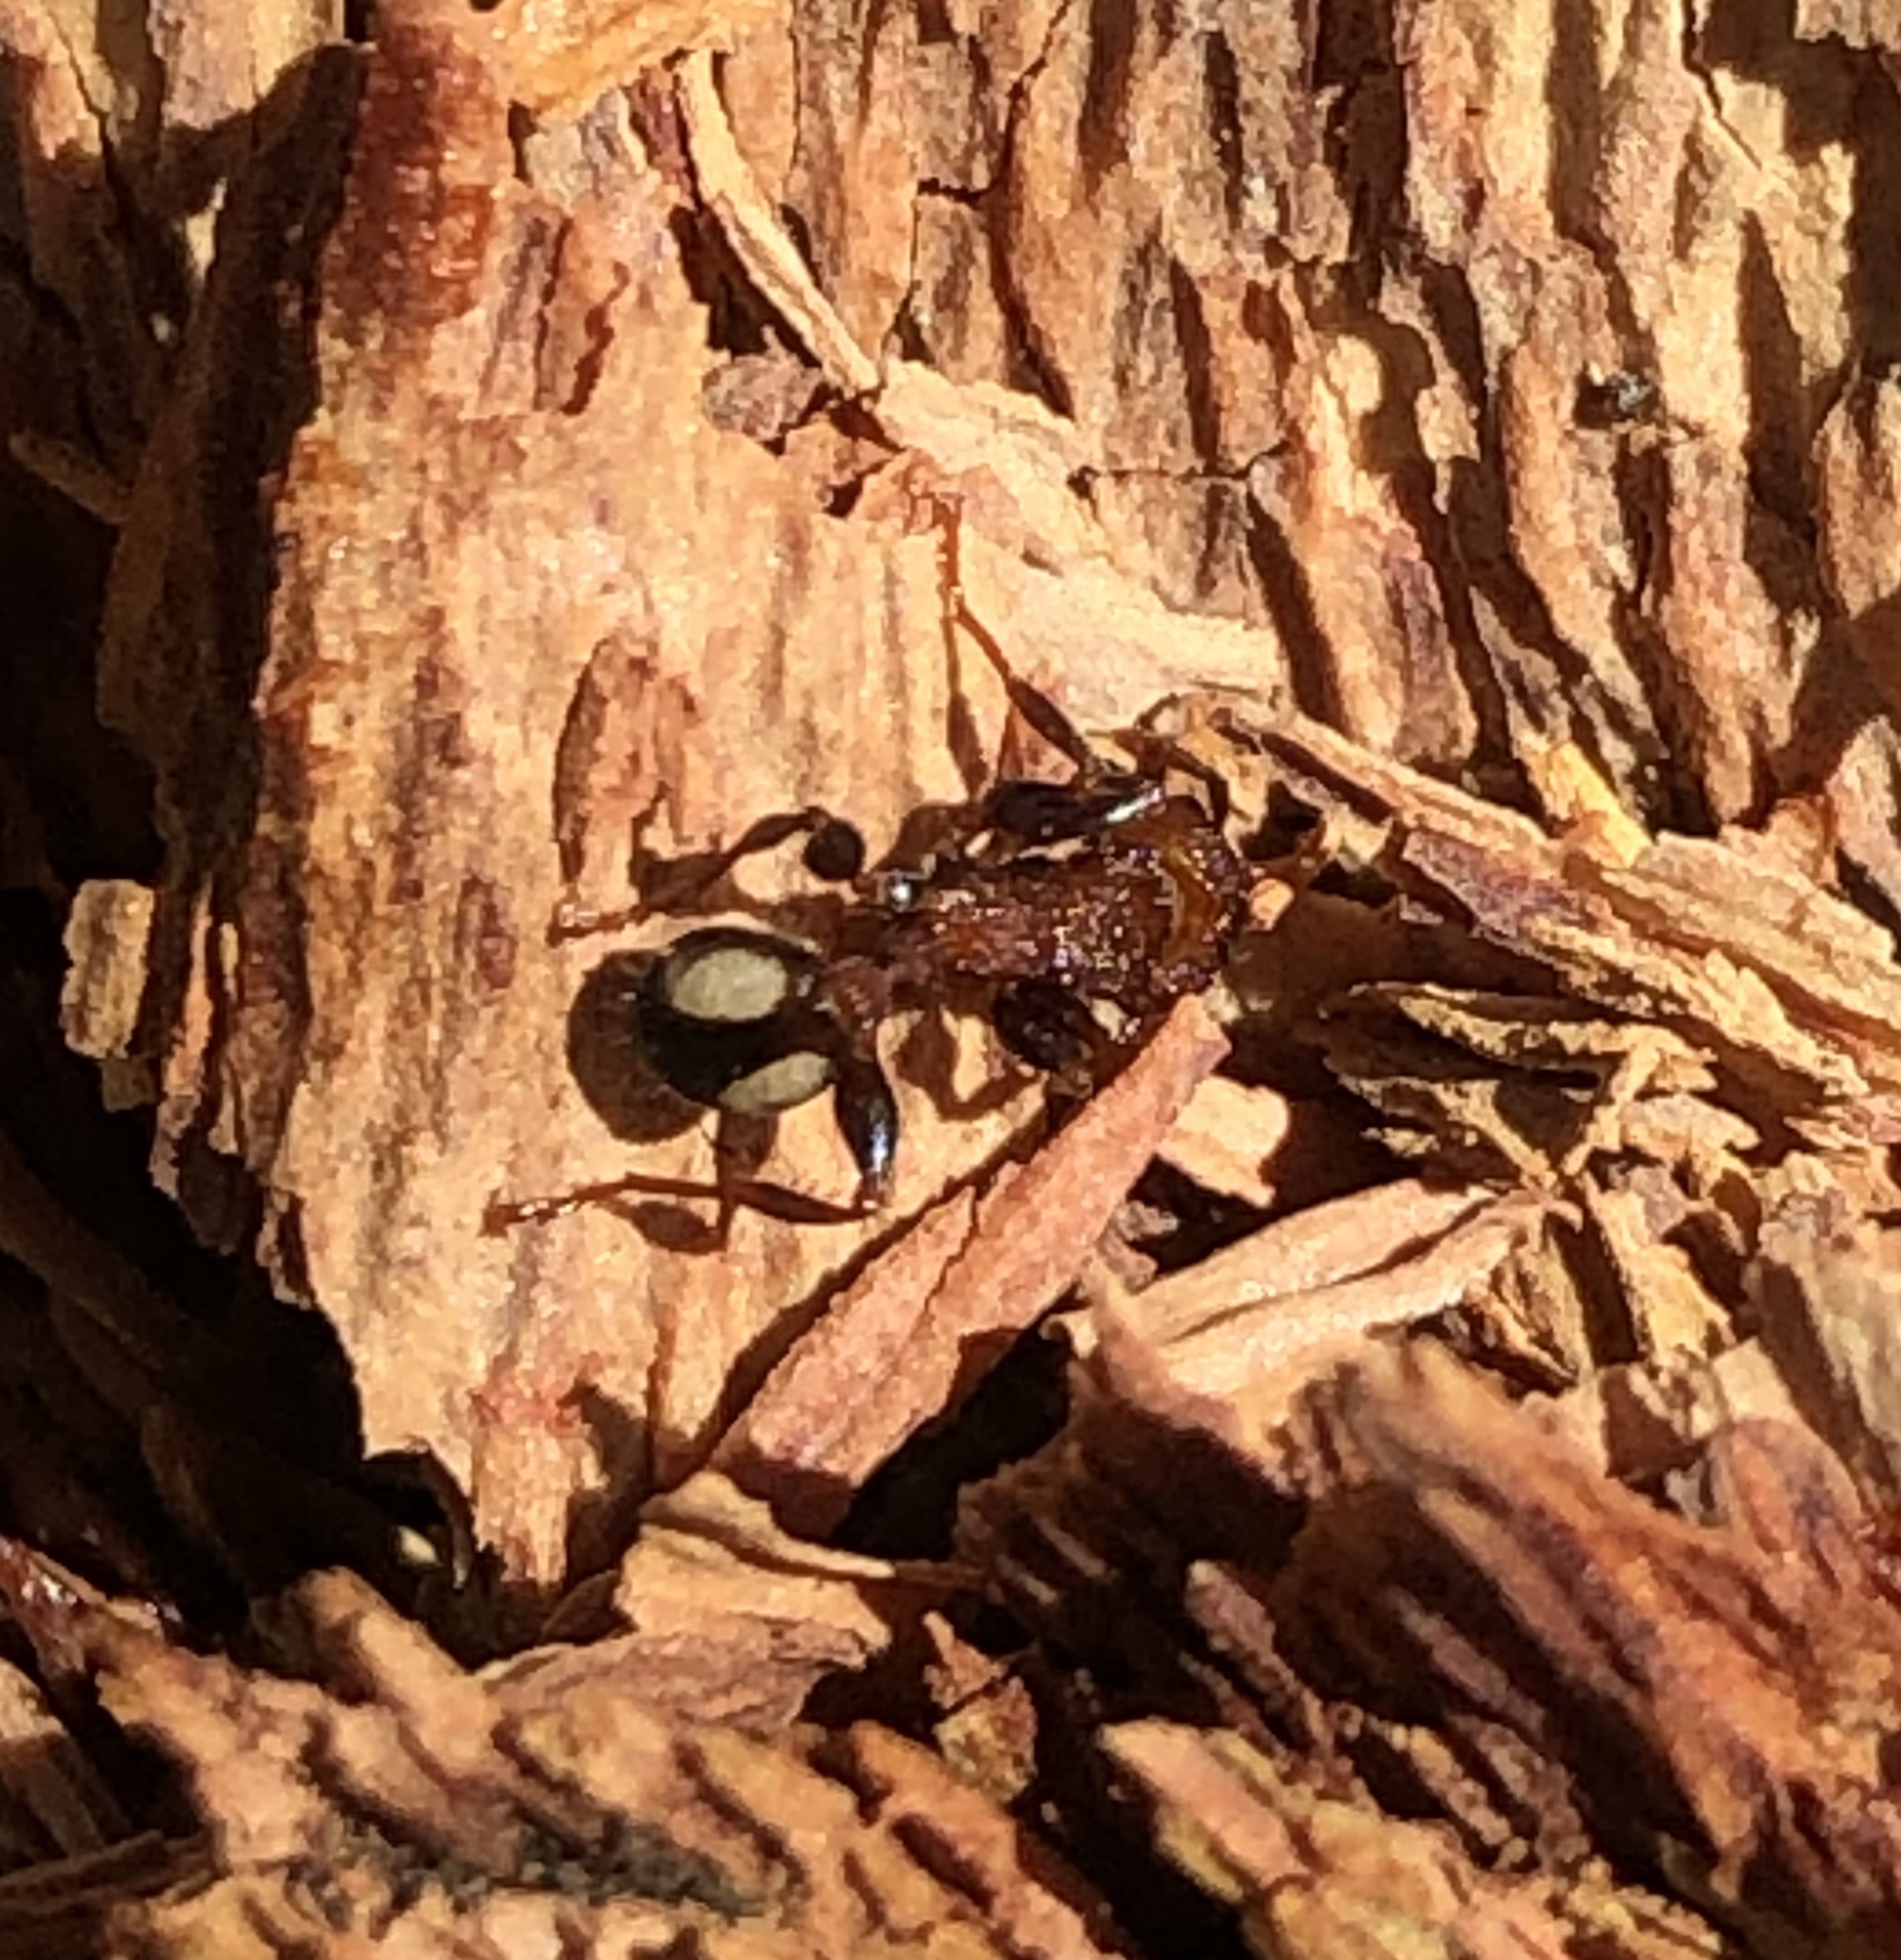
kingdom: Animalia
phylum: Arthropoda
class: Insecta
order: Hymenoptera
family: Formicidae
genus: Podomyrma
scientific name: Podomyrma adelaidae
